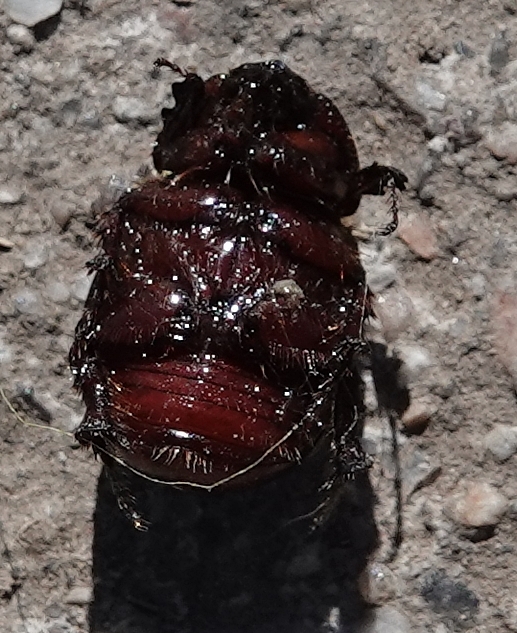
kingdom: Animalia
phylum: Arthropoda
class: Insecta
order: Coleoptera
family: Scarabaeidae
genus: Ligyrus
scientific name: Ligyrus gibbosus
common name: Carrot beetle
